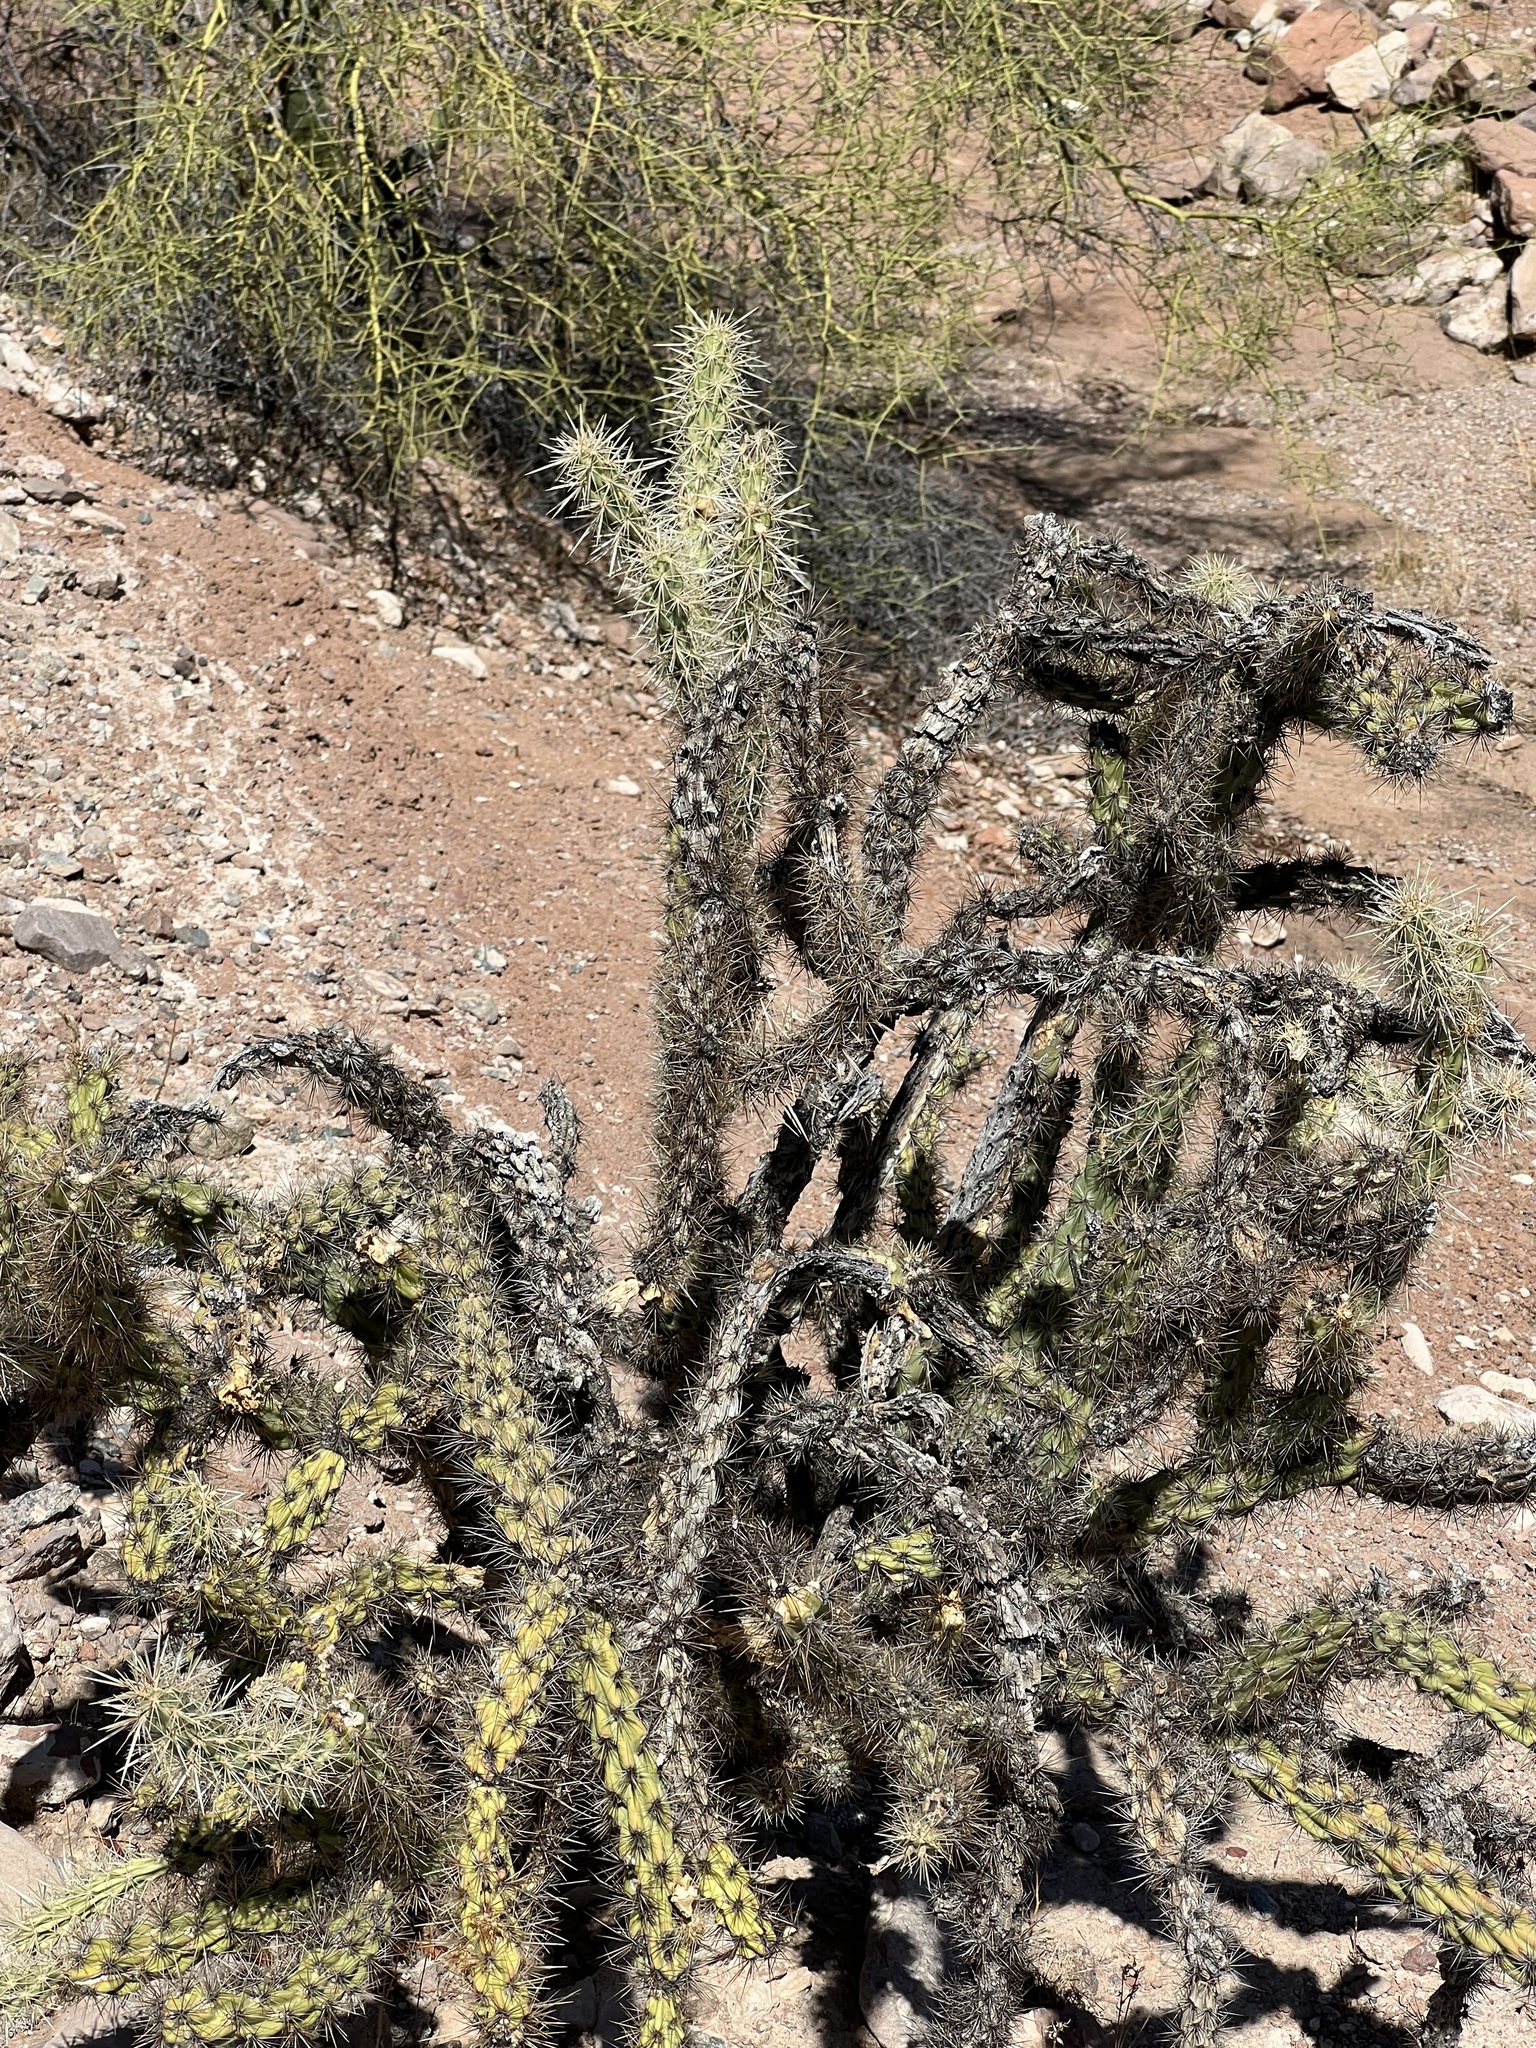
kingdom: Plantae
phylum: Tracheophyta
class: Magnoliopsida
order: Caryophyllales
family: Cactaceae
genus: Cylindropuntia
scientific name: Cylindropuntia acanthocarpa
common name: Buckhorn cholla
